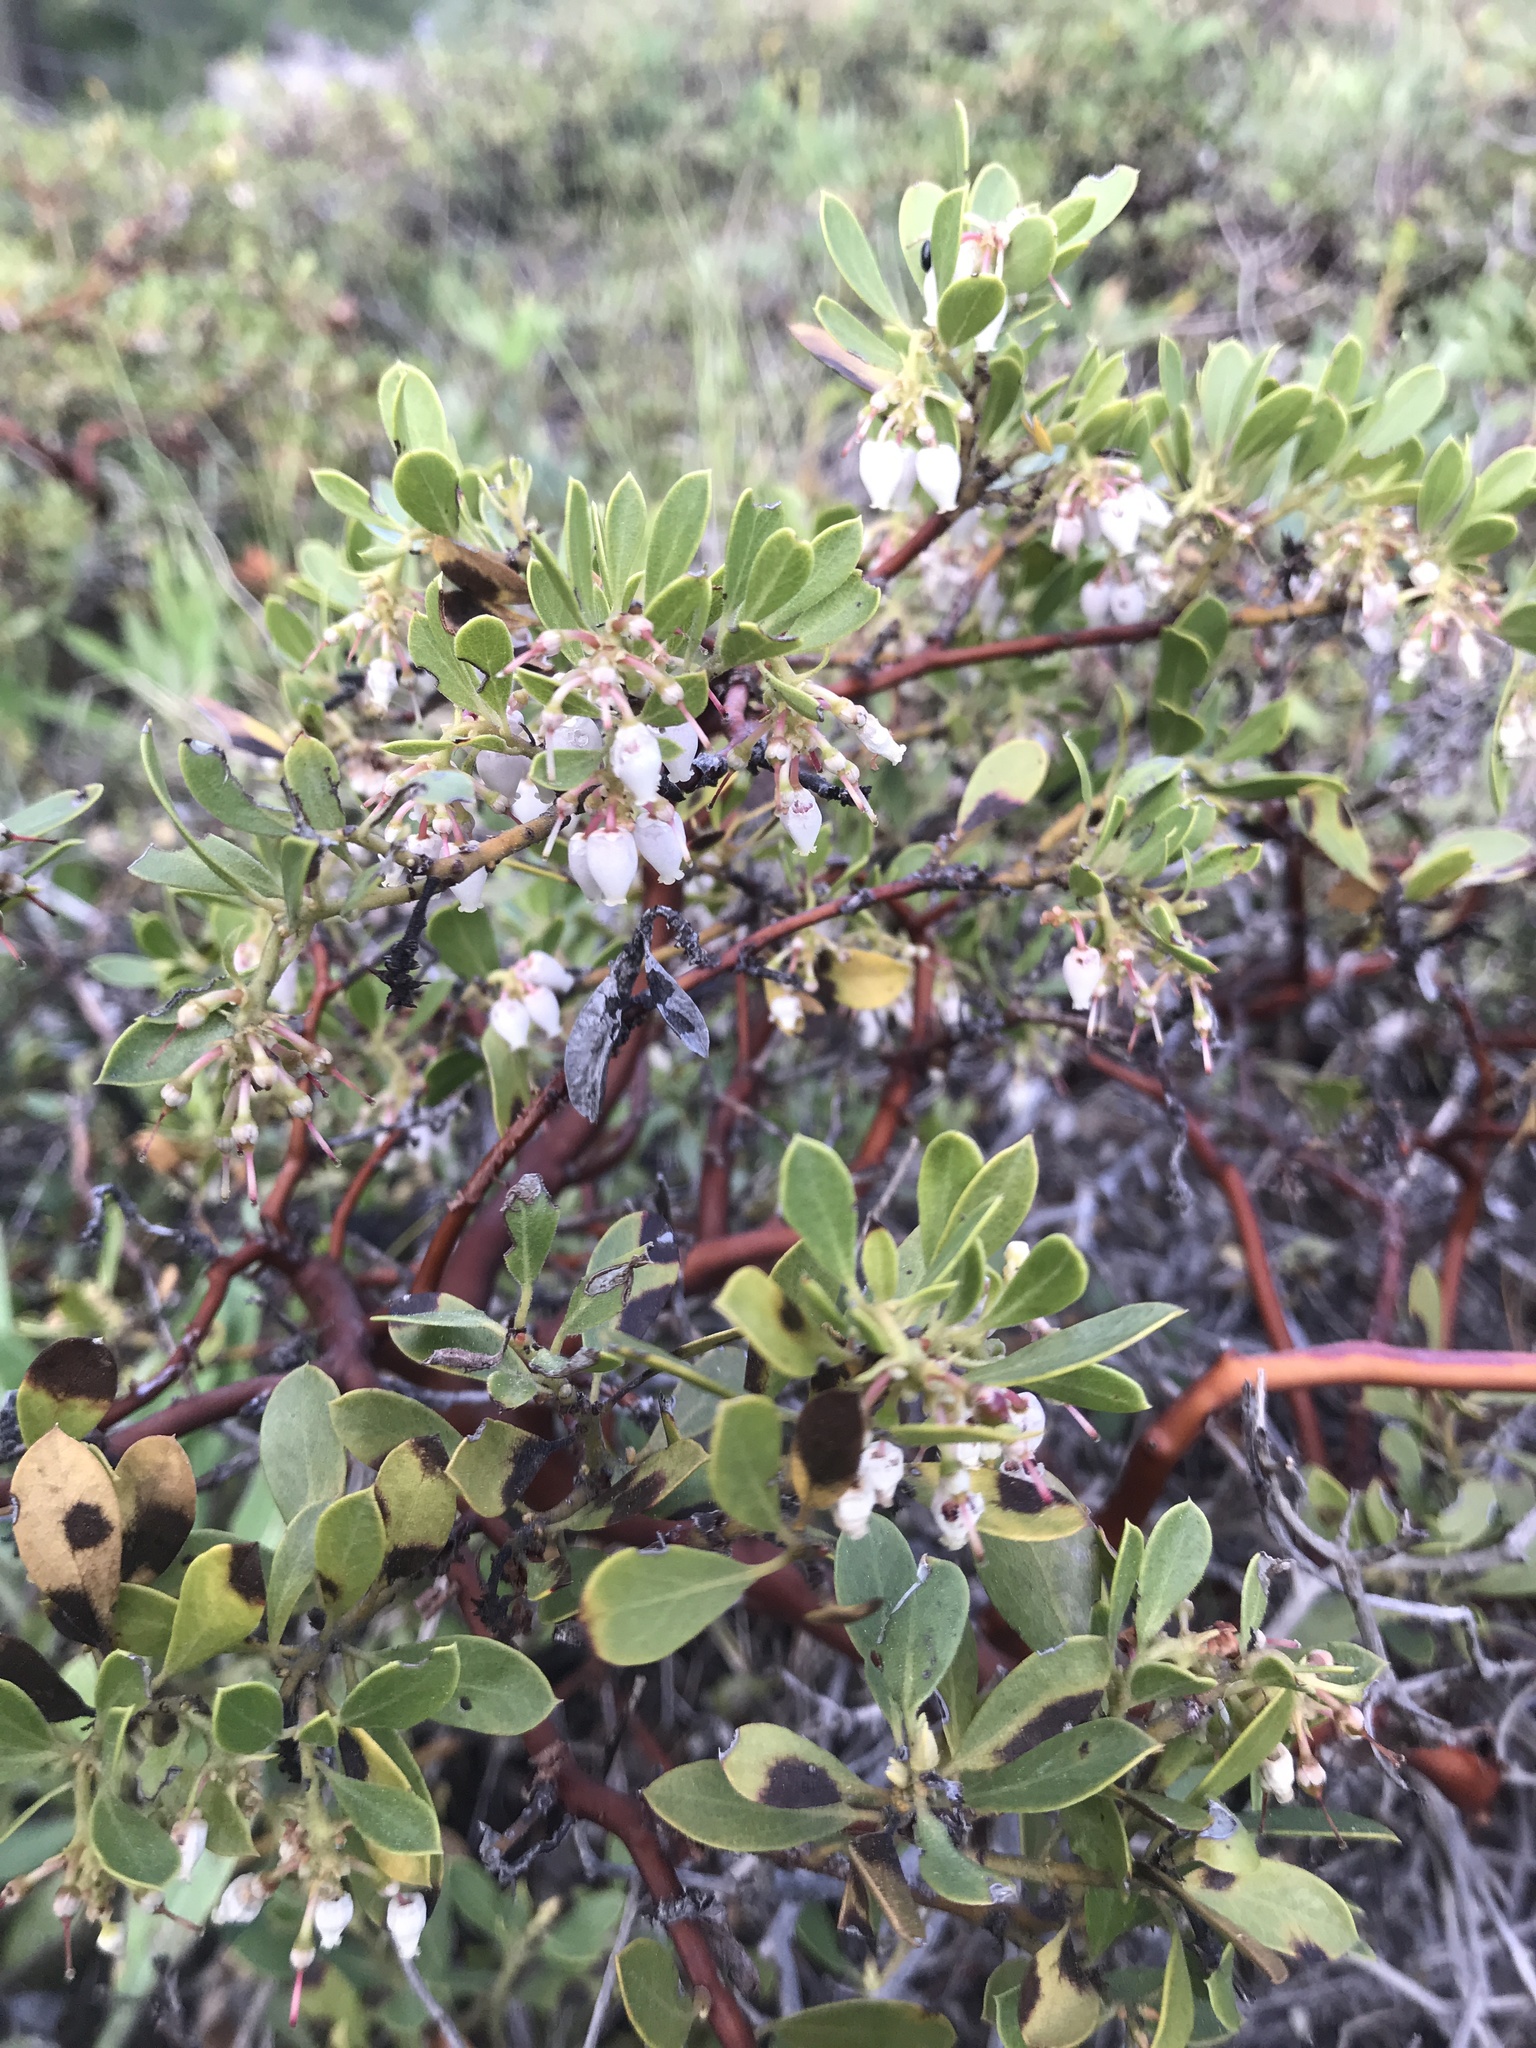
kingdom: Plantae
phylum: Tracheophyta
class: Magnoliopsida
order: Ericales
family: Ericaceae
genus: Arctostaphylos
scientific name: Arctostaphylos nevadensis
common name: Pinemat manzanita
